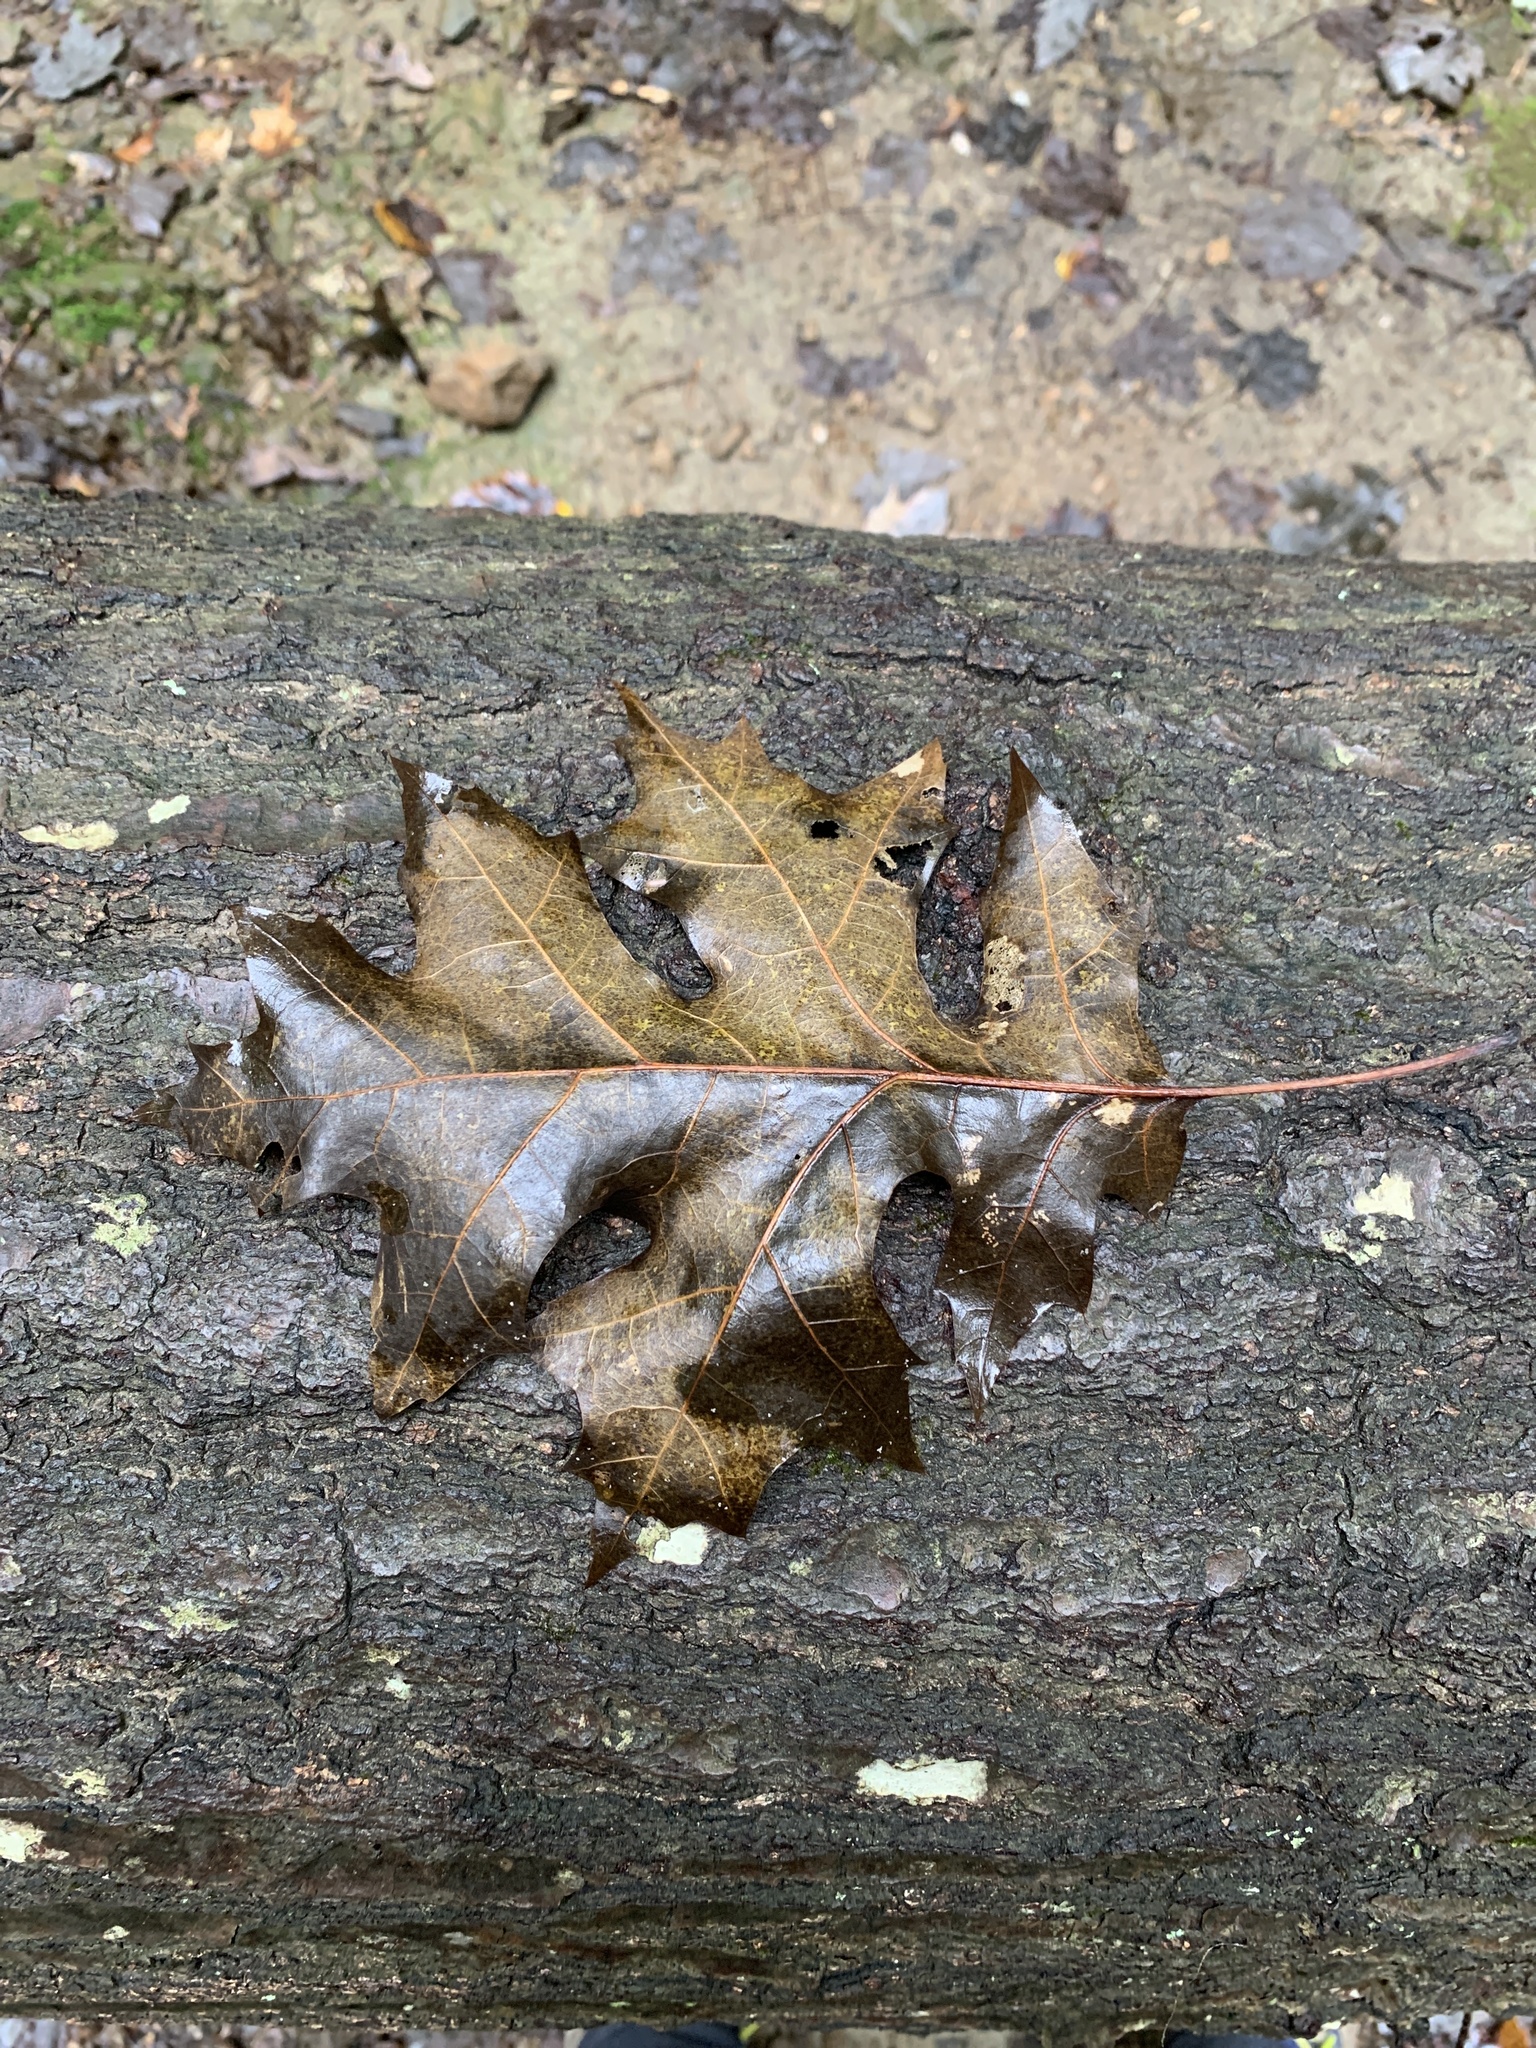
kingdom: Plantae
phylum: Tracheophyta
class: Magnoliopsida
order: Fagales
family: Fagaceae
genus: Quercus
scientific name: Quercus shumardii
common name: Shumard oak
